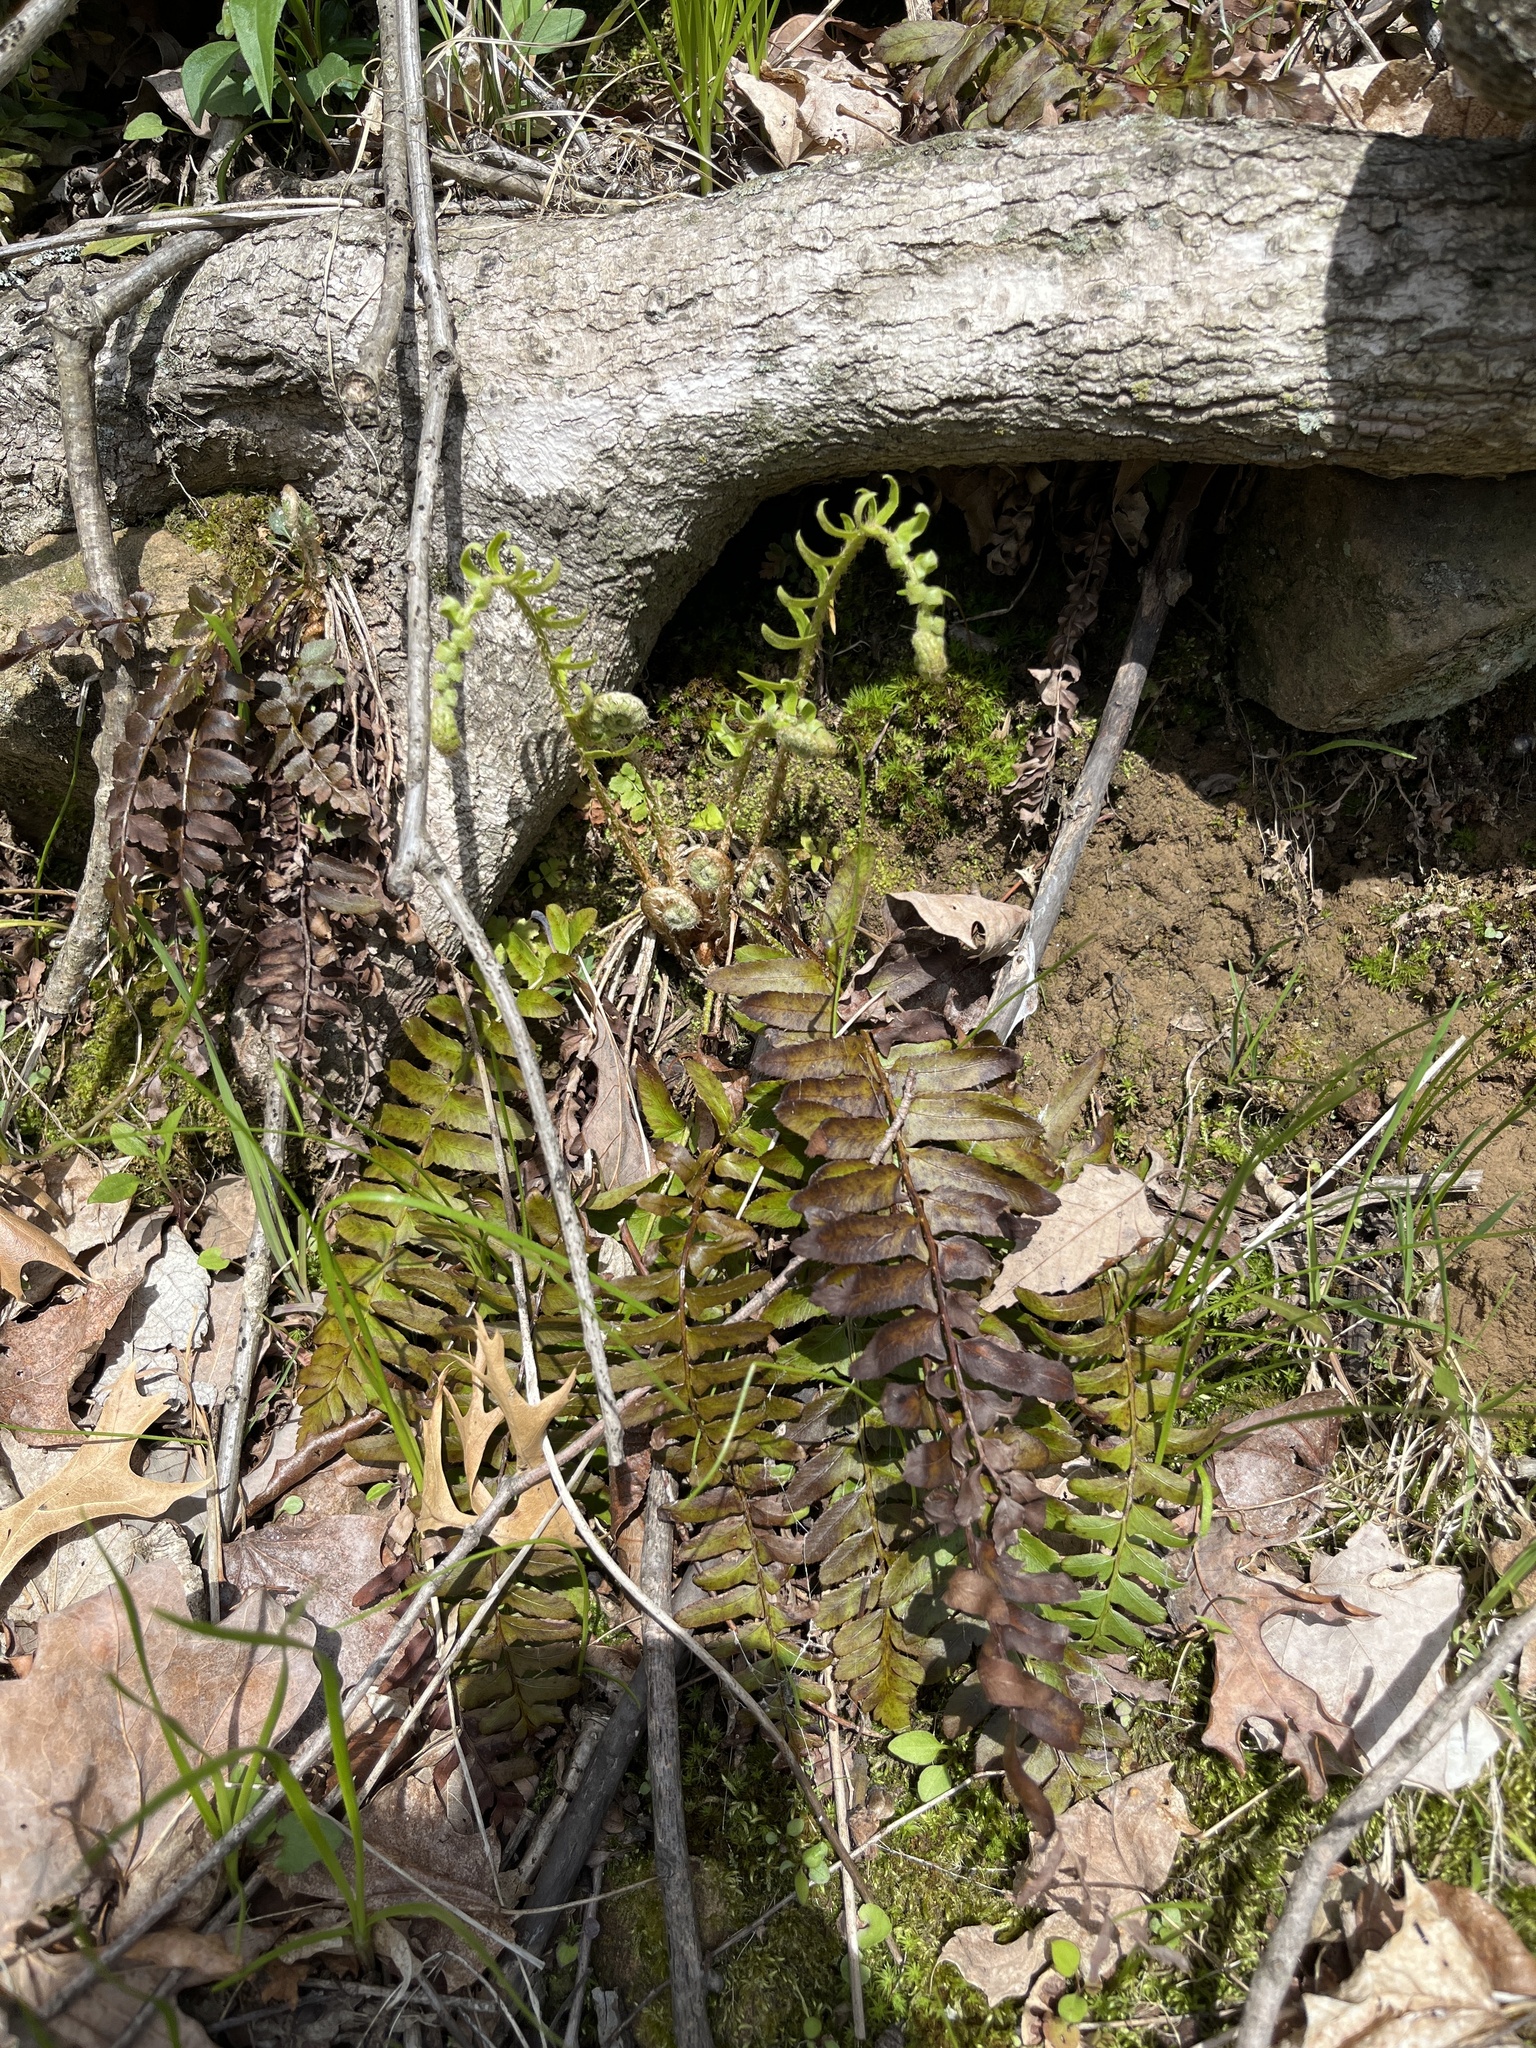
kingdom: Plantae
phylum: Tracheophyta
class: Polypodiopsida
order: Polypodiales
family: Dryopteridaceae
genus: Polystichum
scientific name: Polystichum acrostichoides
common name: Christmas fern
